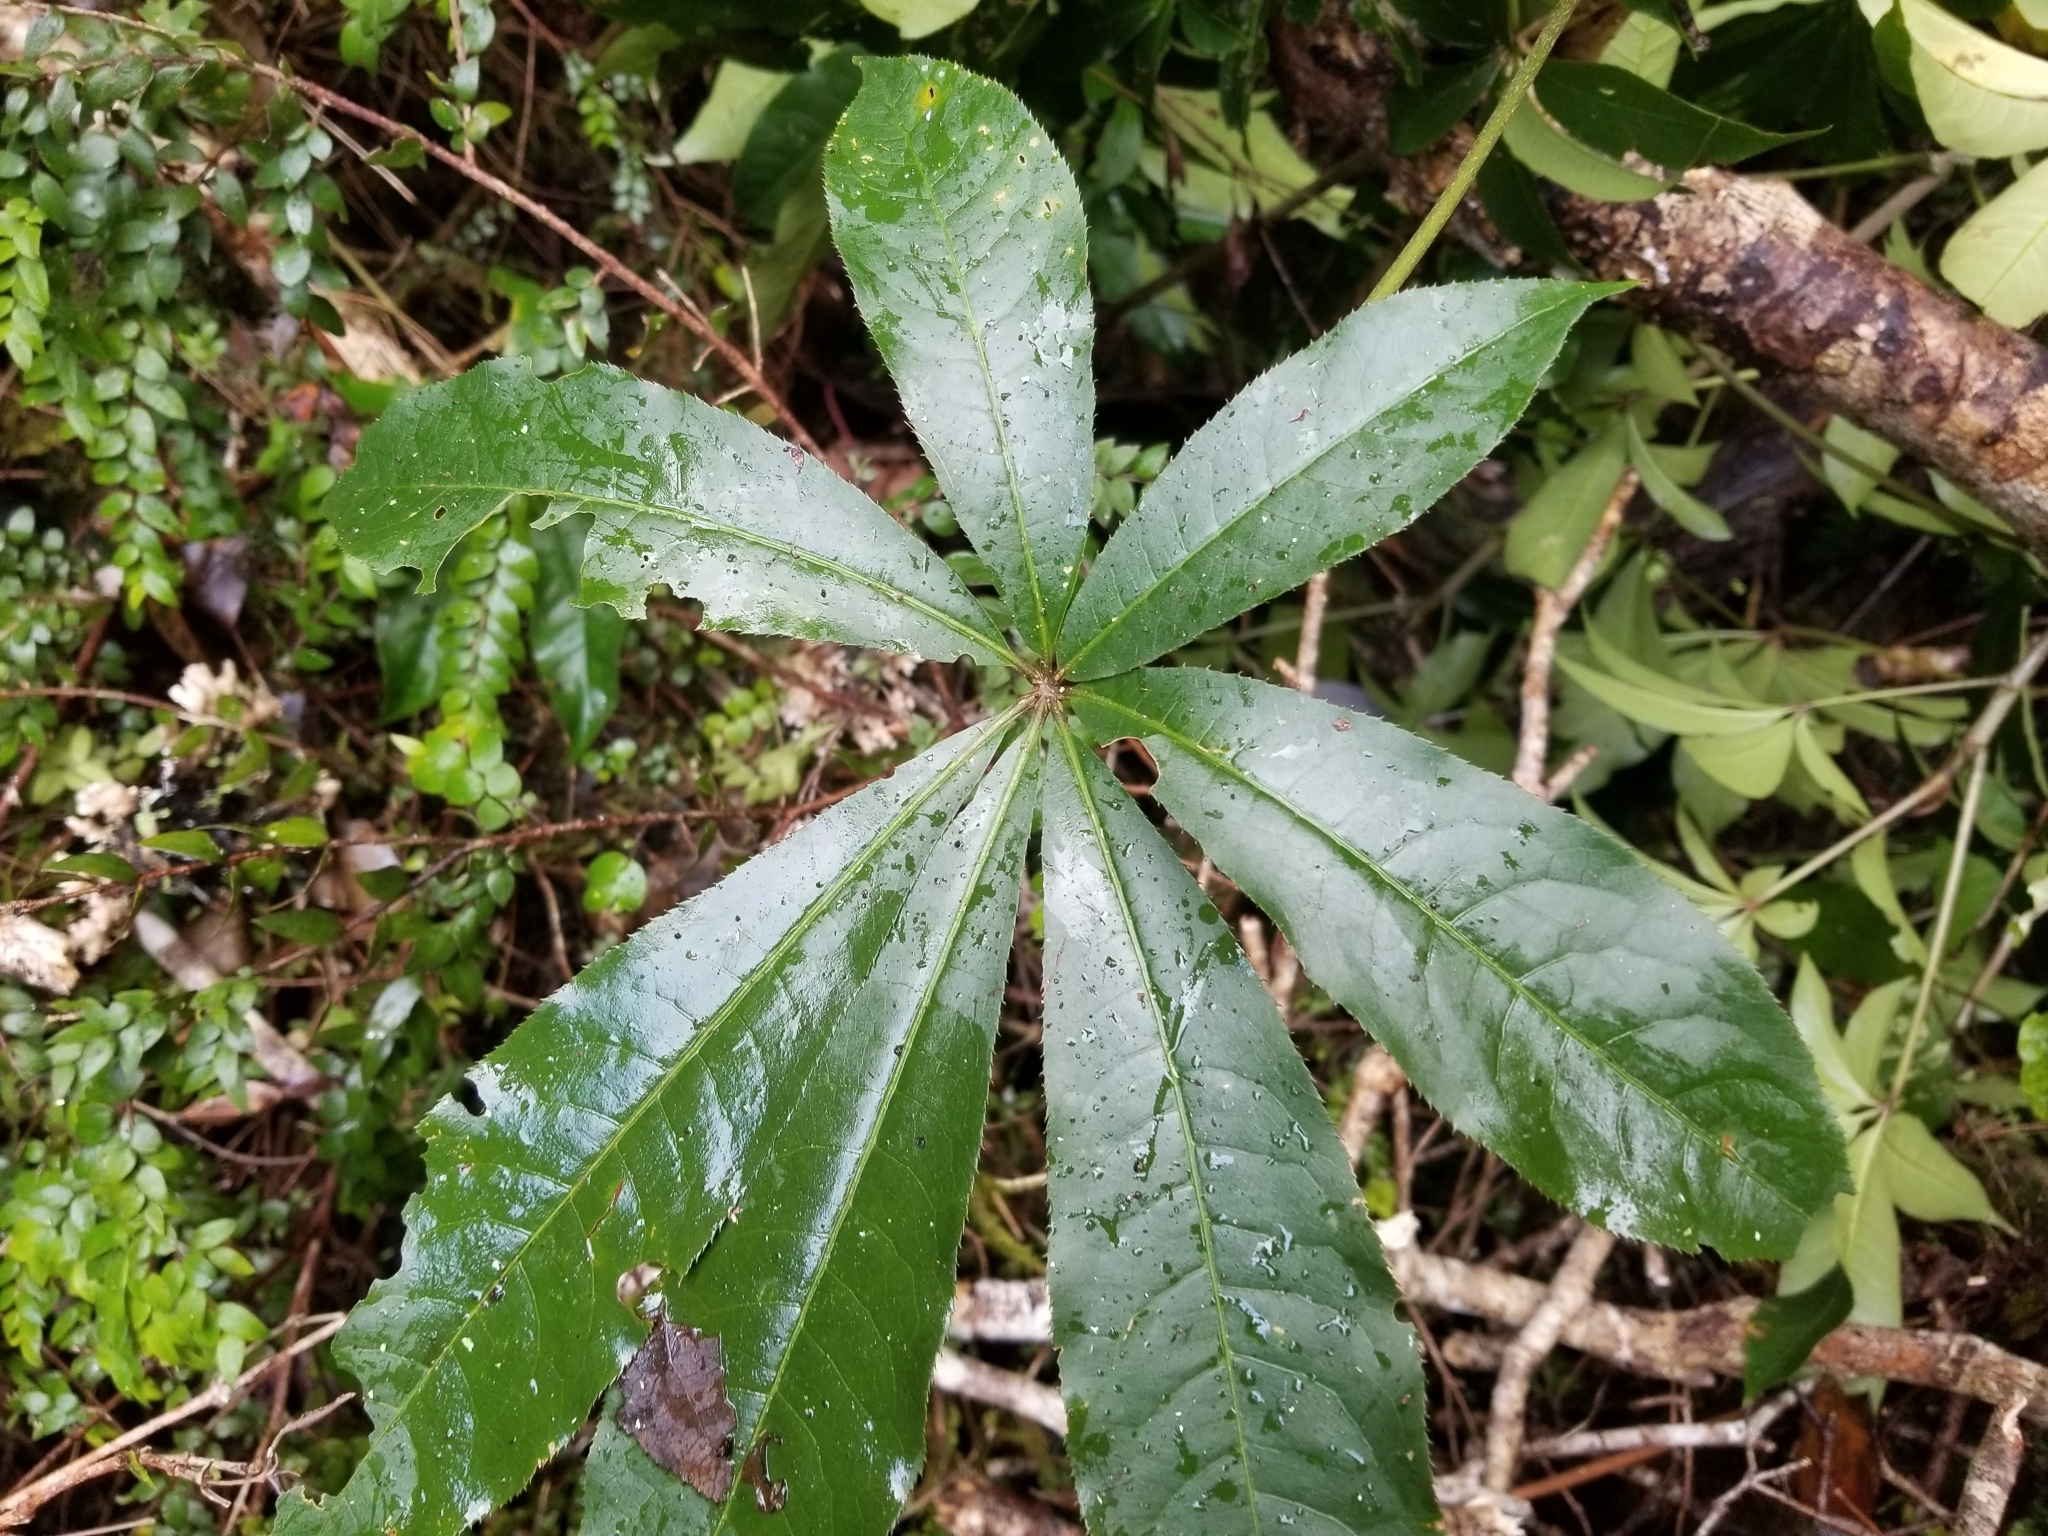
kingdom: Plantae
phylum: Tracheophyta
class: Magnoliopsida
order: Apiales
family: Araliaceae
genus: Schefflera
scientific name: Schefflera digitata
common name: Pate
